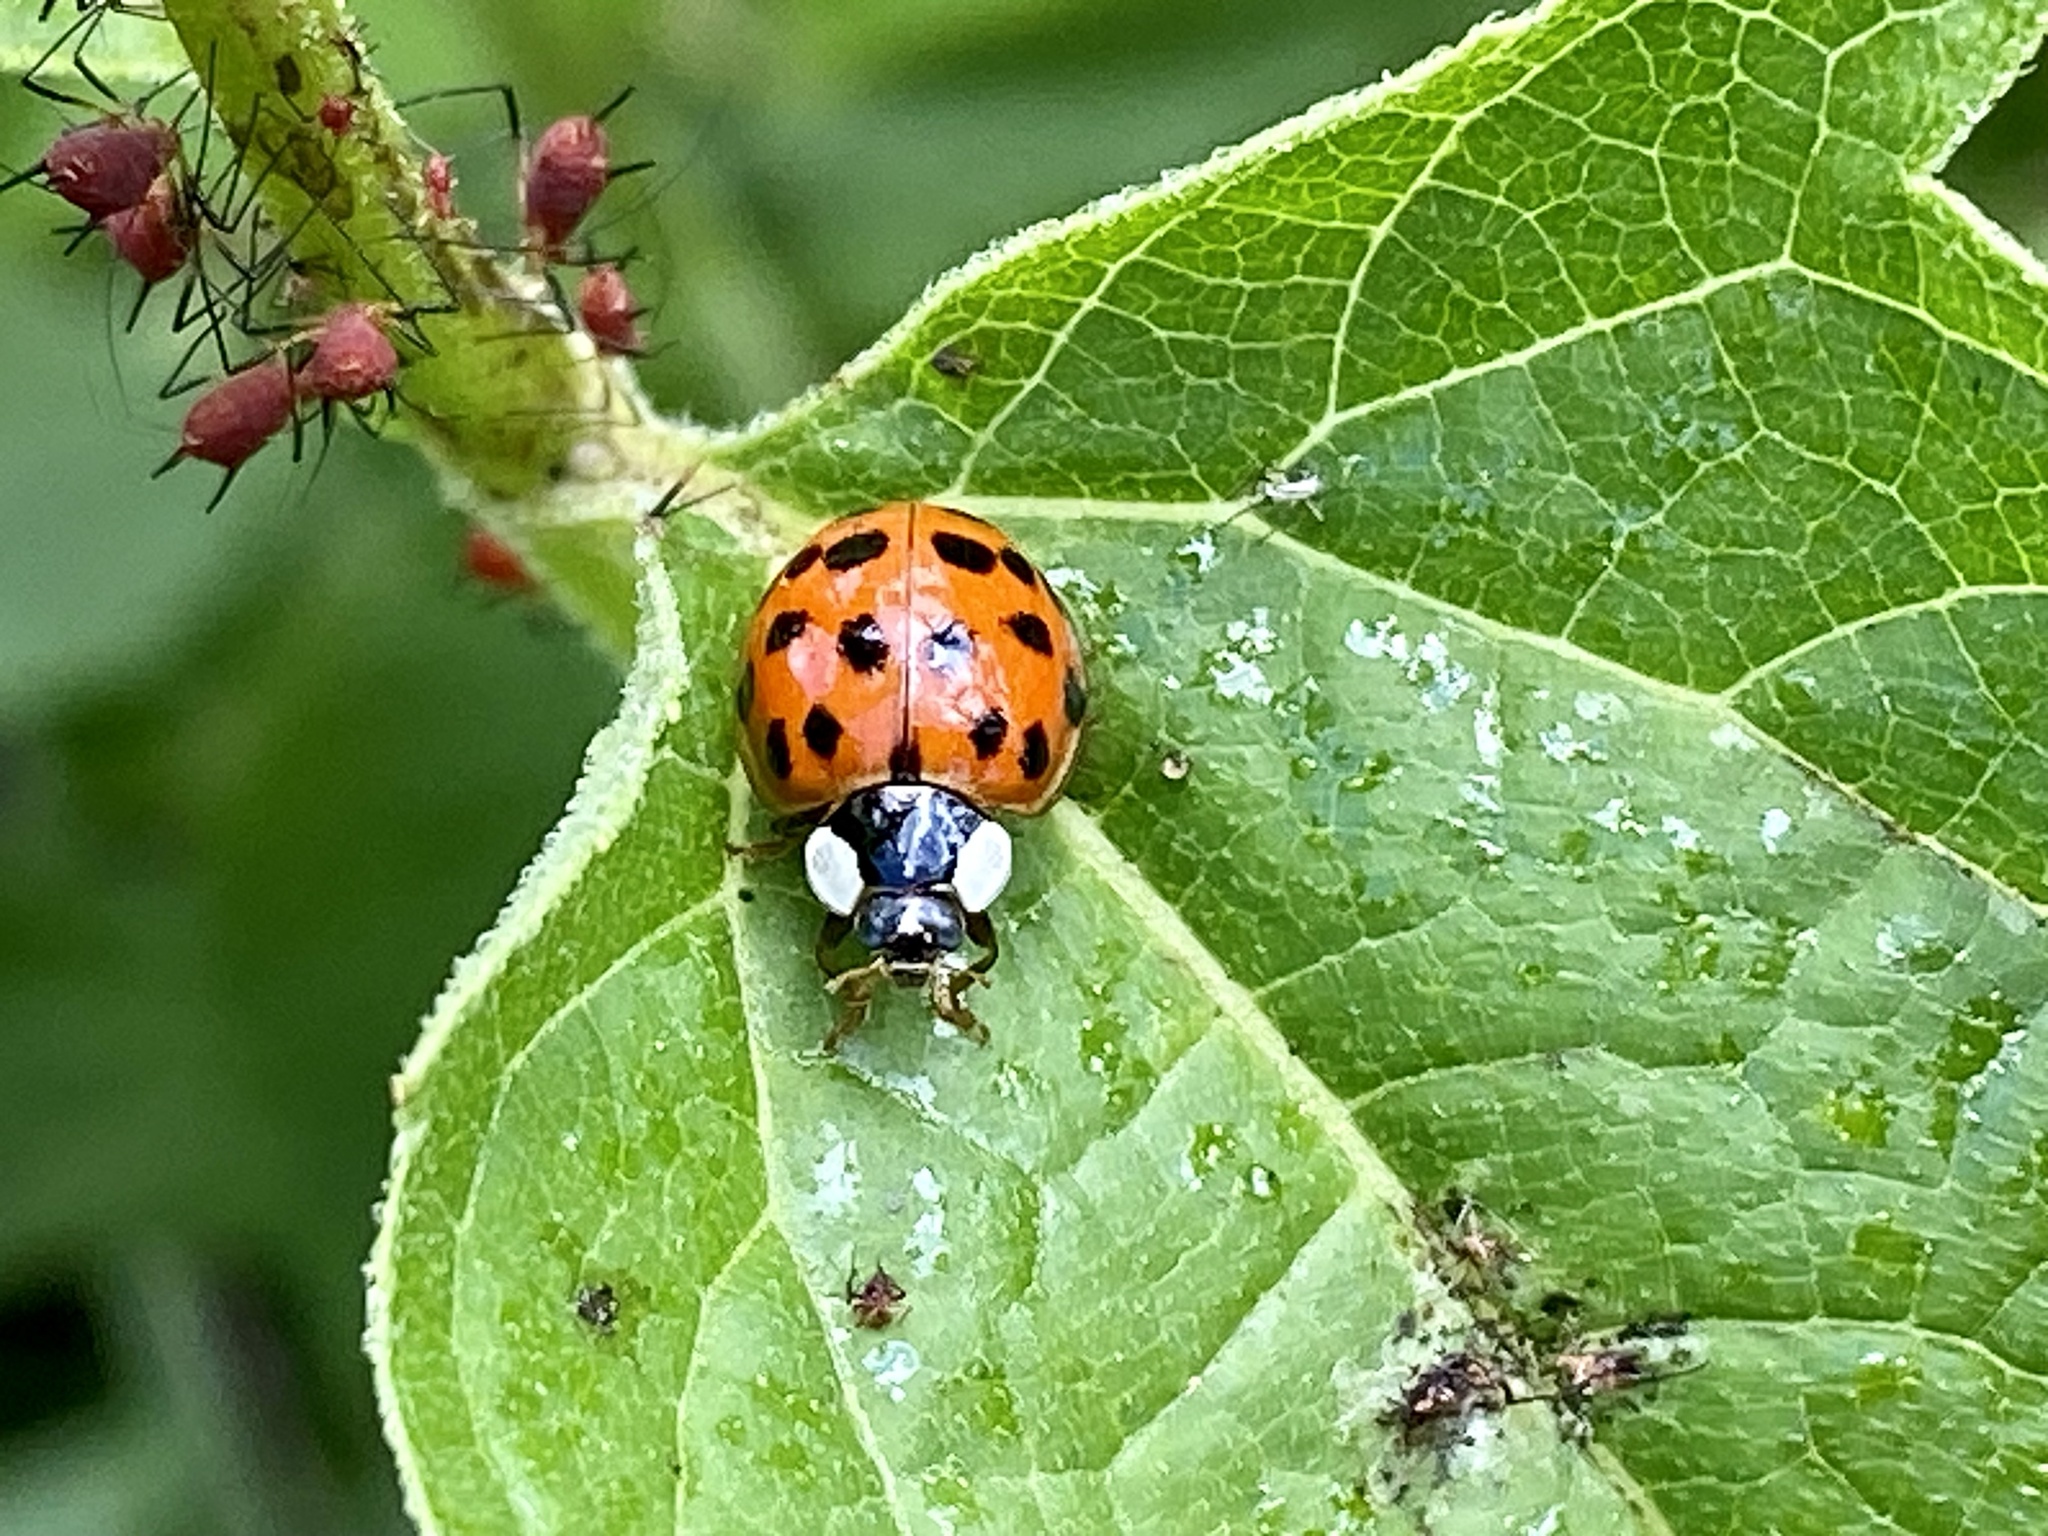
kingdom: Animalia
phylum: Arthropoda
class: Insecta
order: Coleoptera
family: Coccinellidae
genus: Harmonia
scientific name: Harmonia axyridis
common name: Harlequin ladybird
